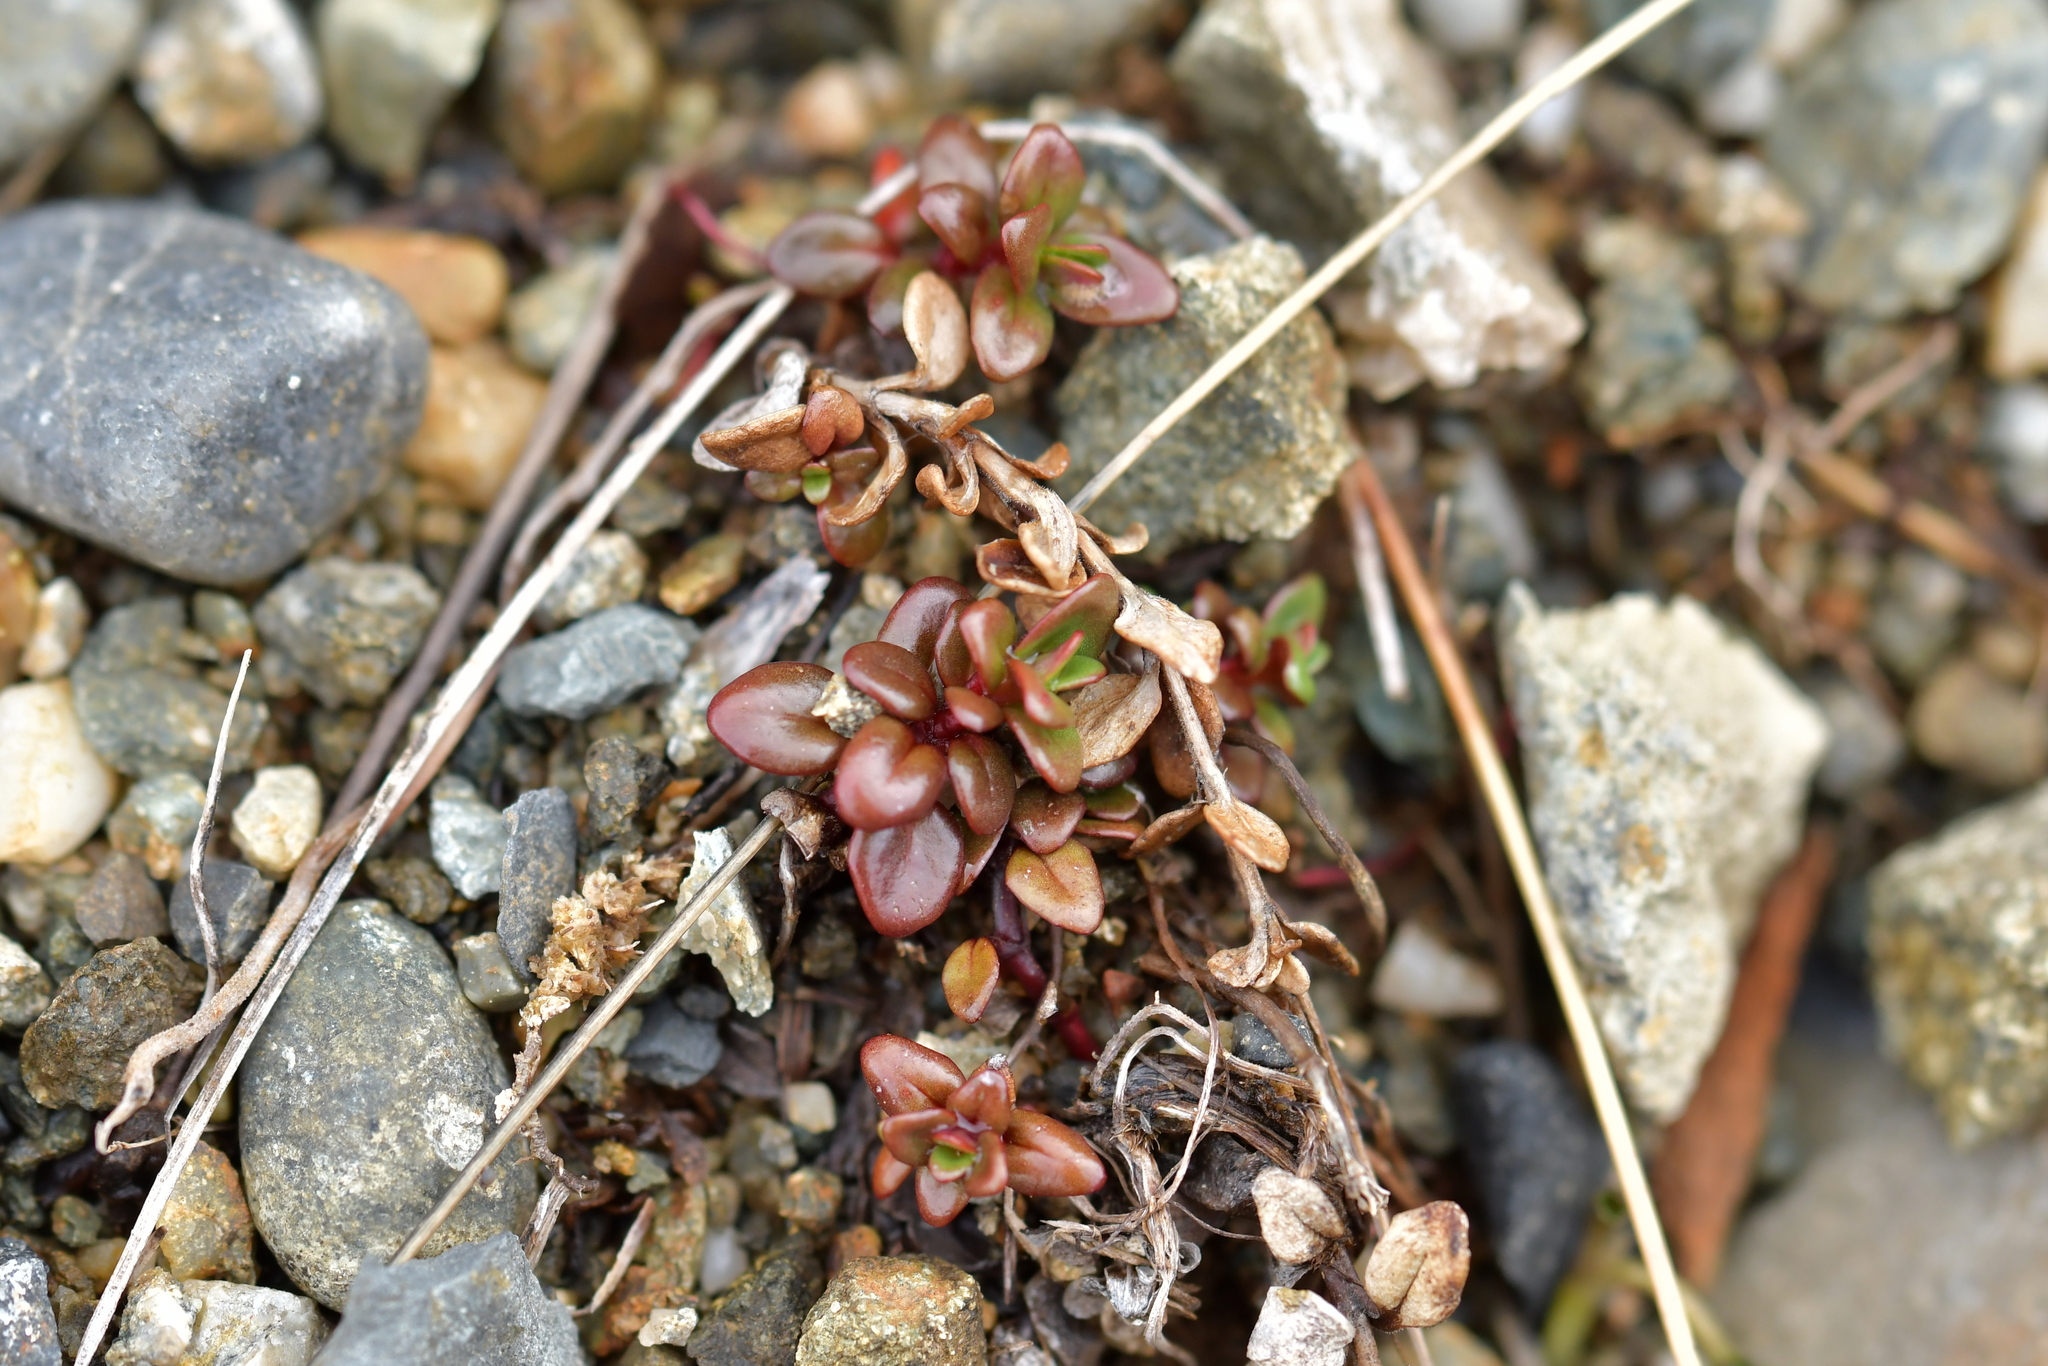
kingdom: Plantae
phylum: Tracheophyta
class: Magnoliopsida
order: Myrtales
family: Onagraceae
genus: Epilobium
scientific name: Epilobium gracilipes
